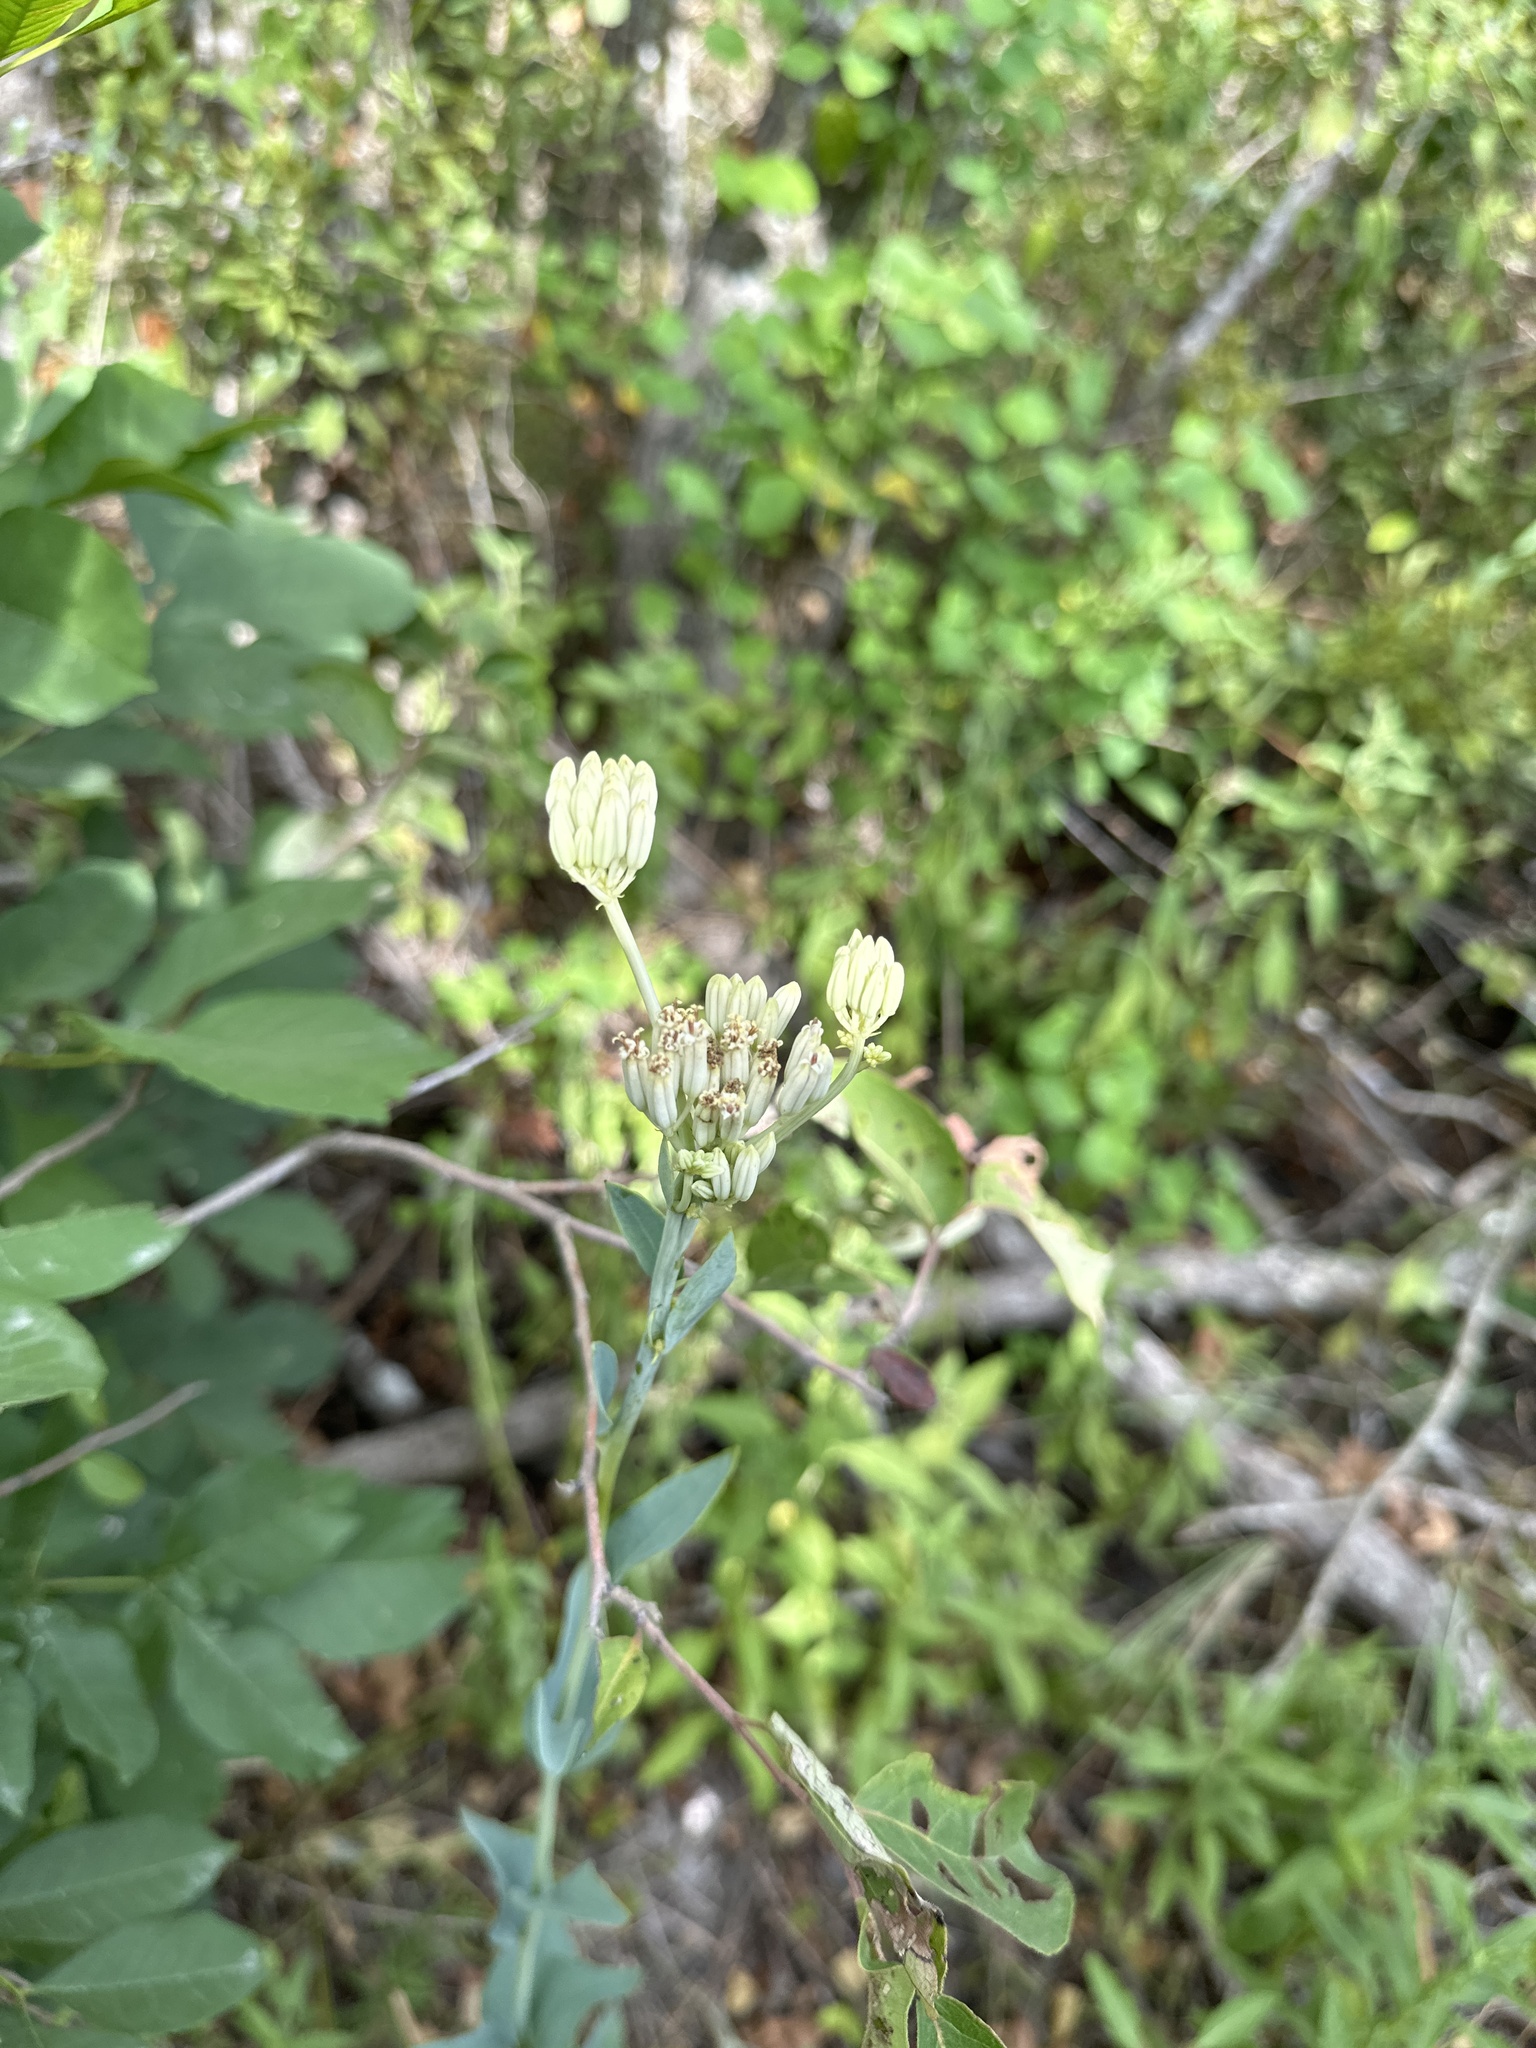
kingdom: Plantae
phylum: Tracheophyta
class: Magnoliopsida
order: Asterales
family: Asteraceae
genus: Arnoglossum
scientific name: Arnoglossum ovatum
